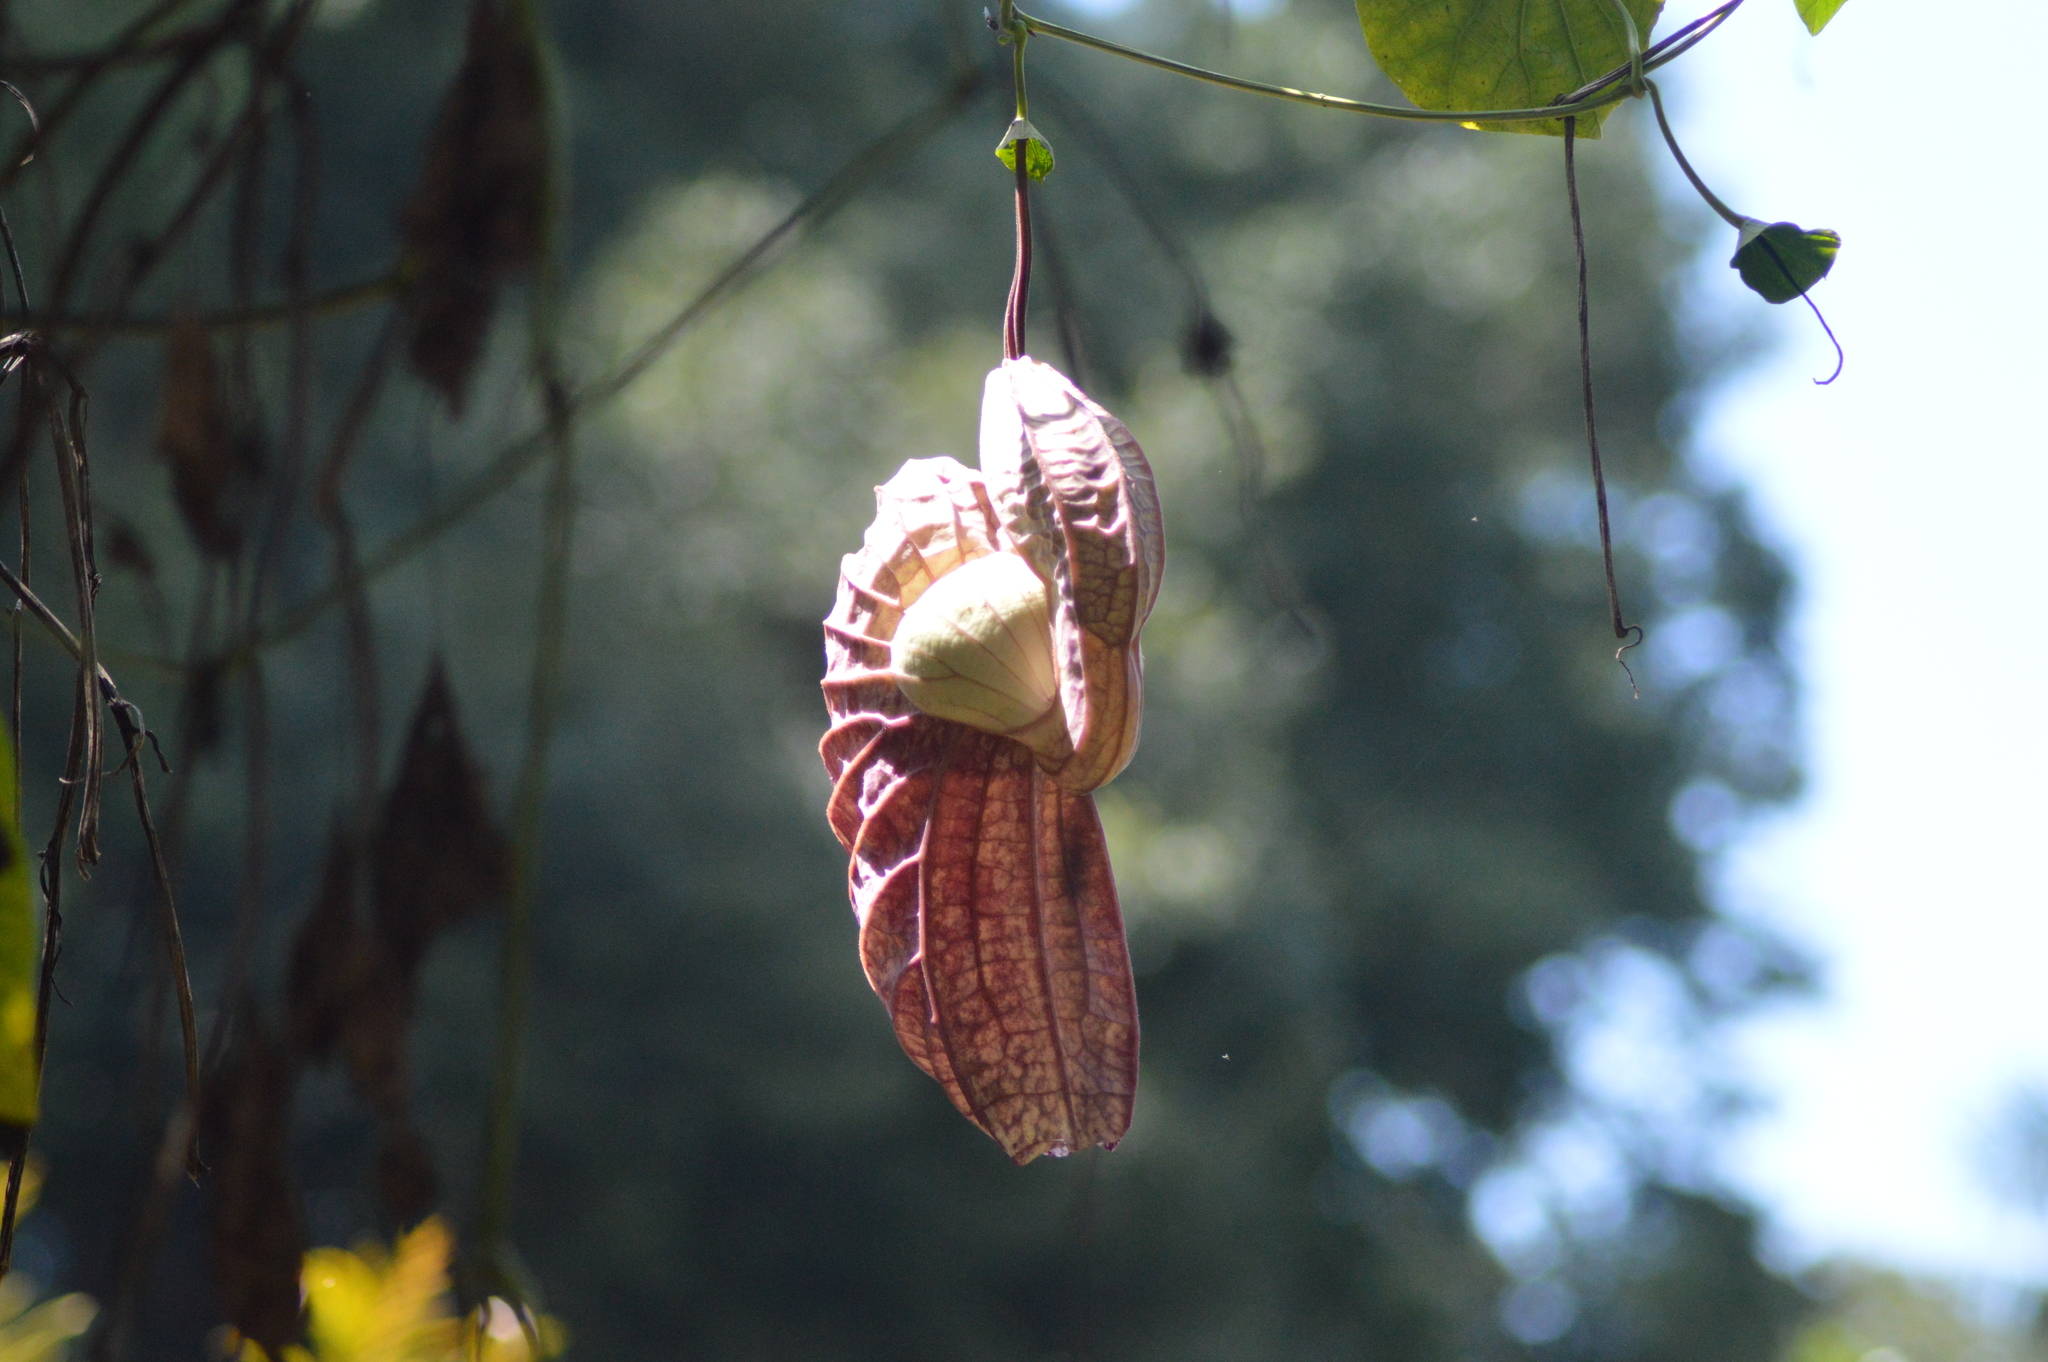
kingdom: Plantae
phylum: Tracheophyta
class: Magnoliopsida
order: Piperales
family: Aristolochiaceae
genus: Aristolochia
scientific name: Aristolochia grandiflora
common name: Pelicanflower
